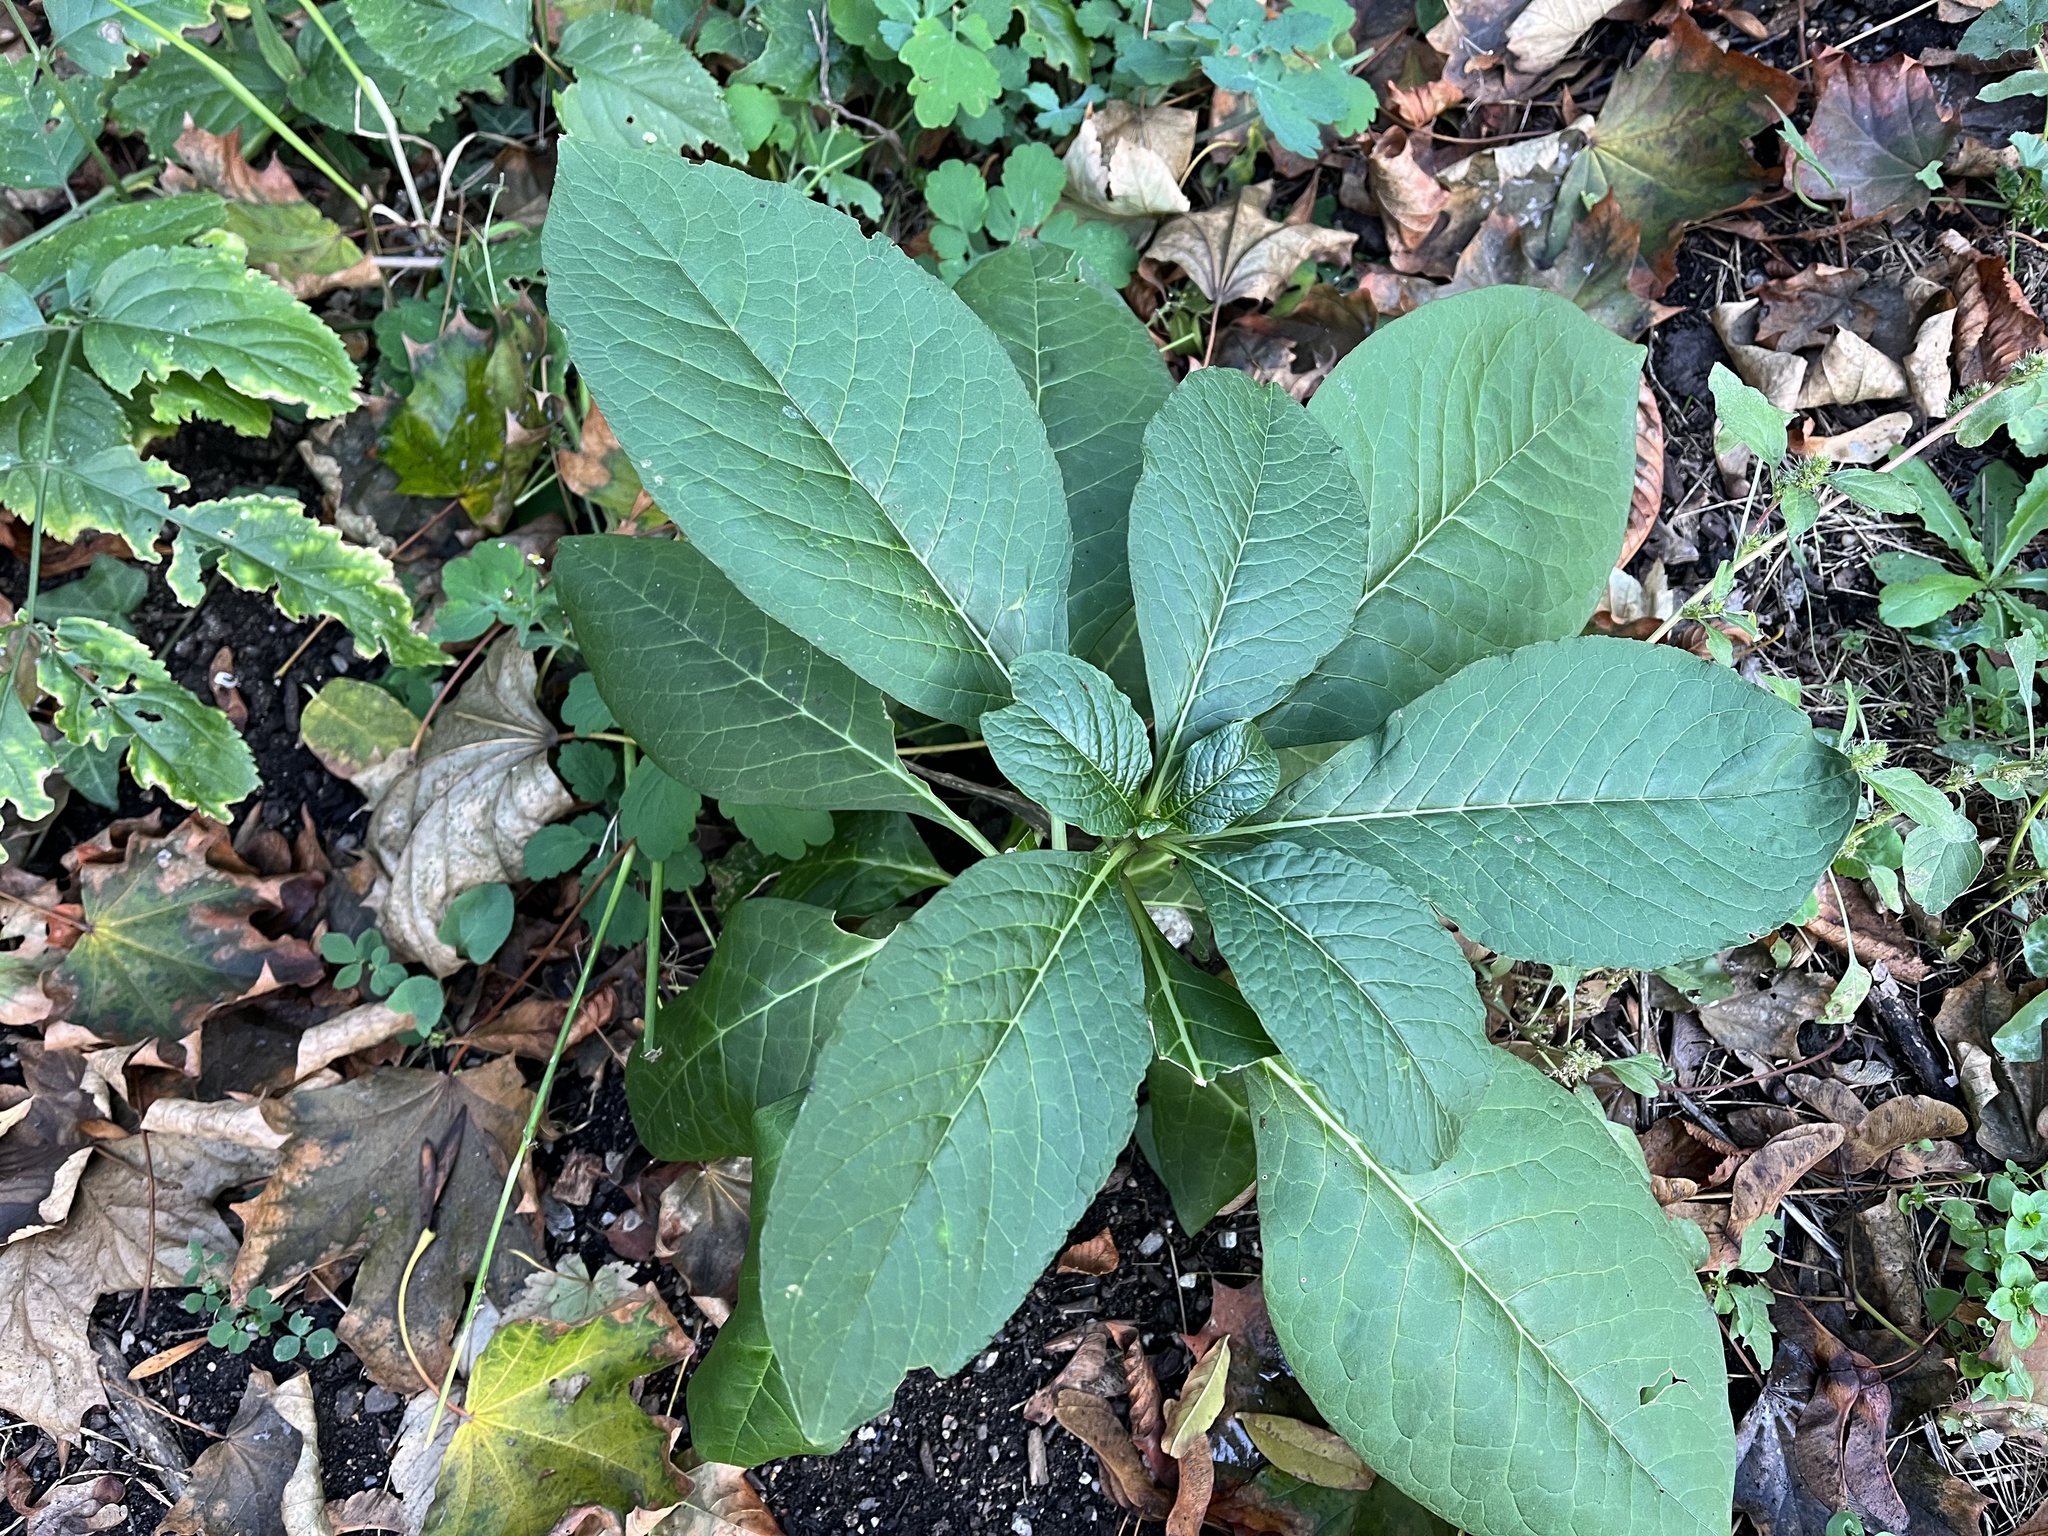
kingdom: Plantae
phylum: Tracheophyta
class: Magnoliopsida
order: Caryophyllales
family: Phytolaccaceae
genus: Phytolacca
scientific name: Phytolacca acinosa
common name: Indian pokeweed
